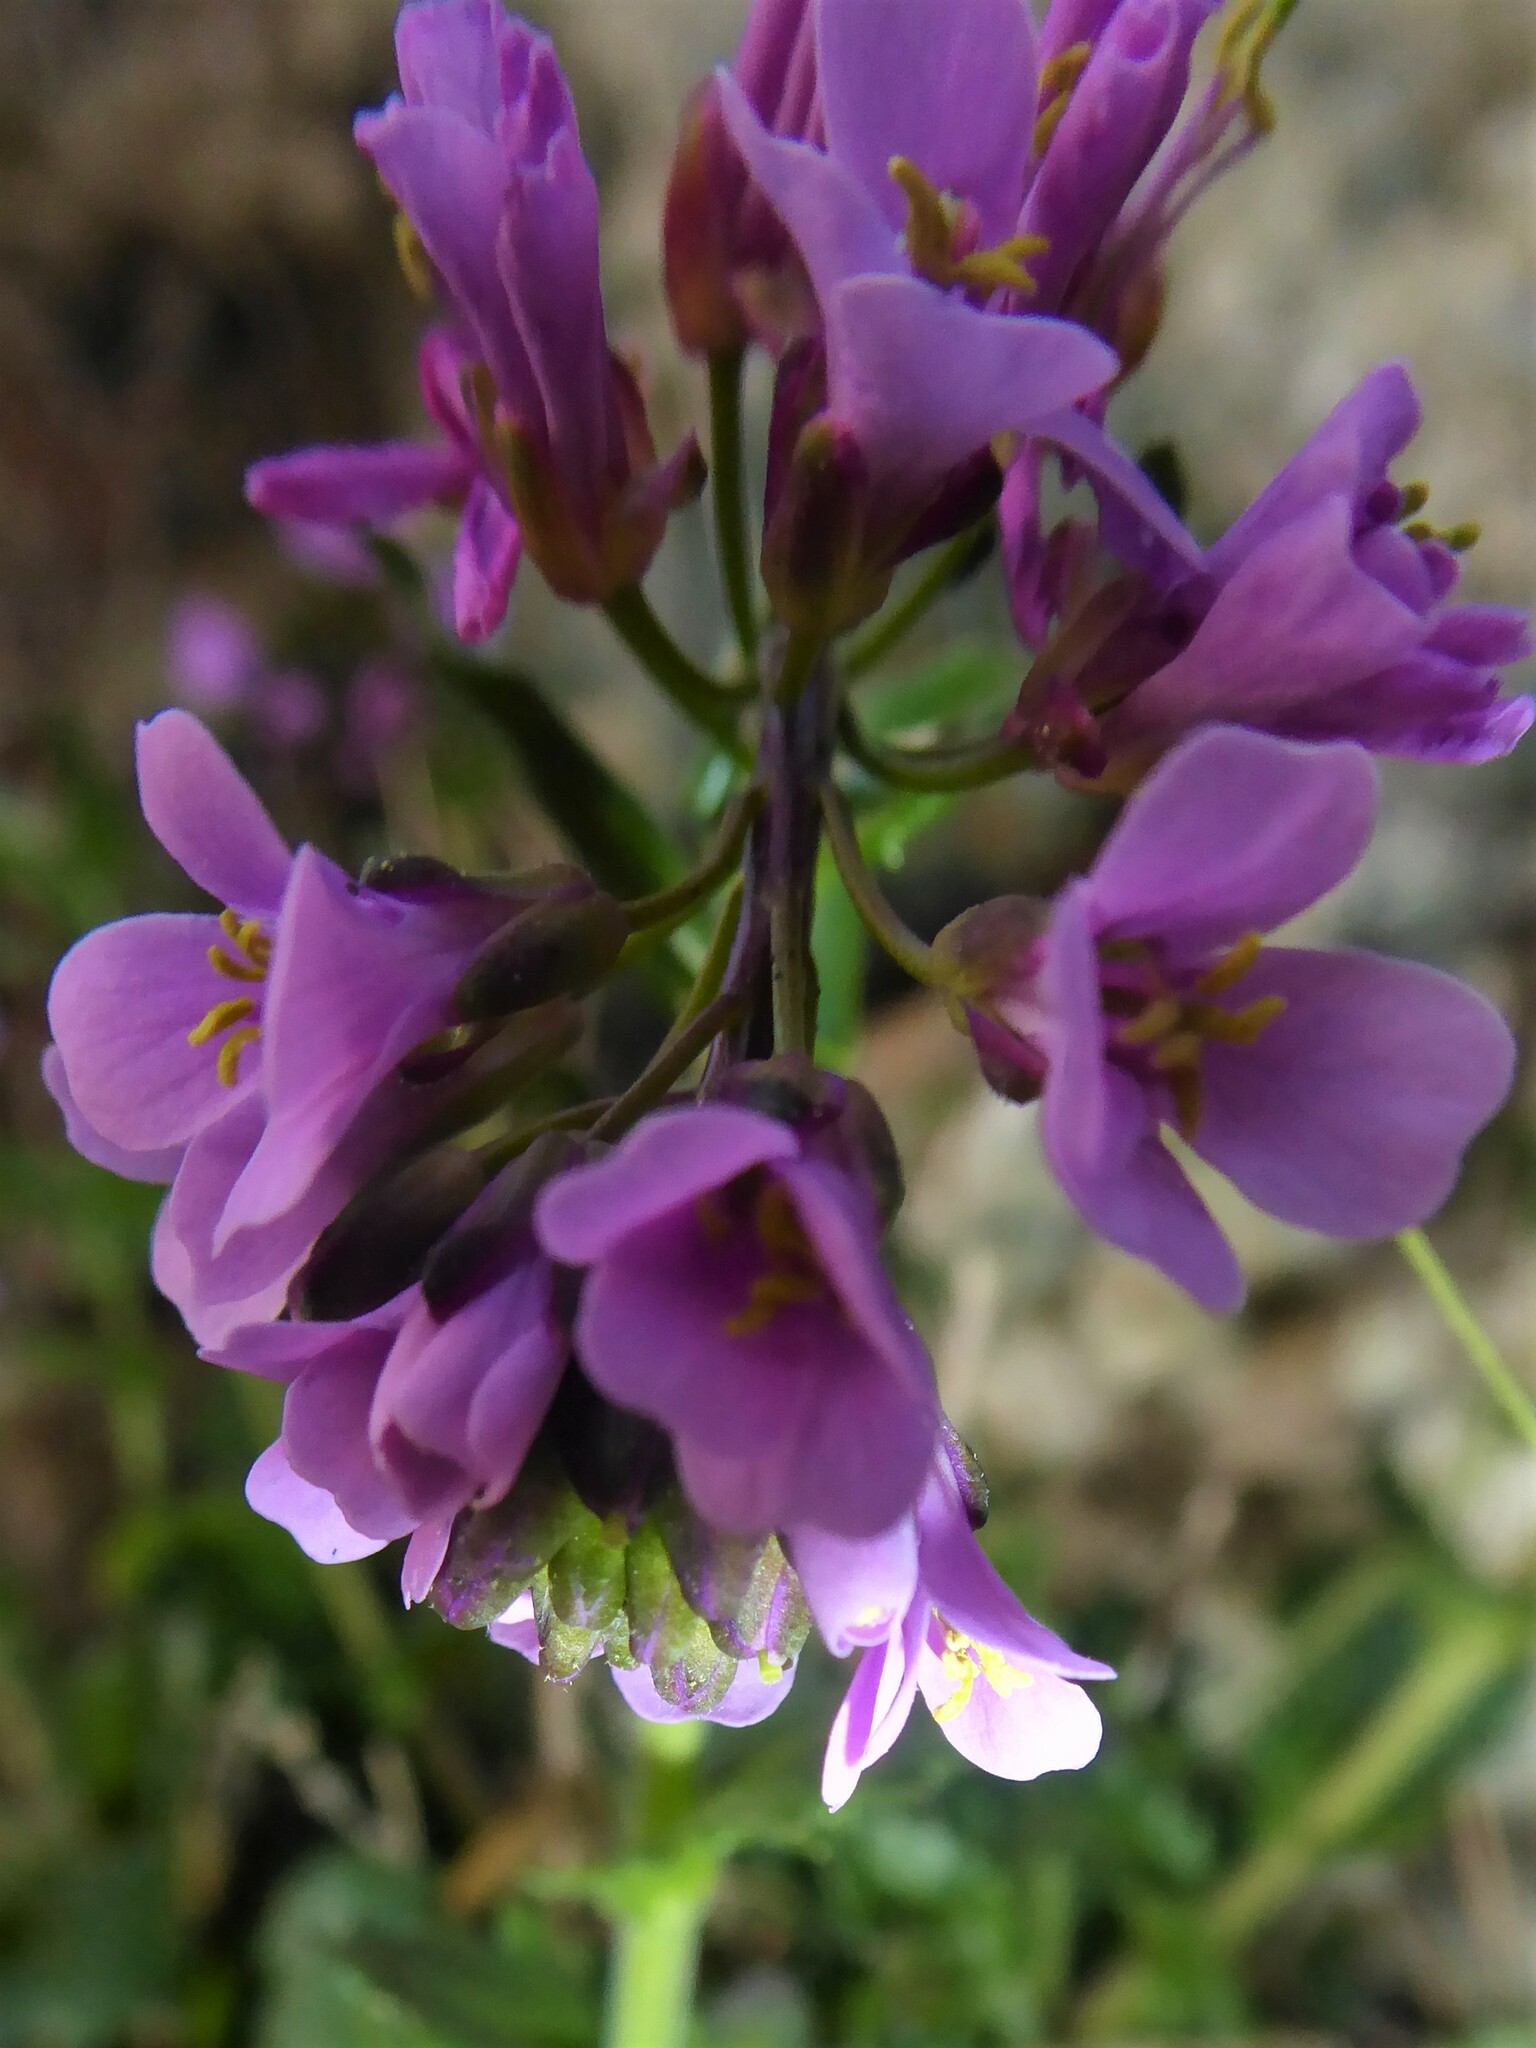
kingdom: Plantae
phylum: Tracheophyta
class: Magnoliopsida
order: Brassicales
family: Brassicaceae
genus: Arabis
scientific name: Arabis collina
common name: Rosy cress
